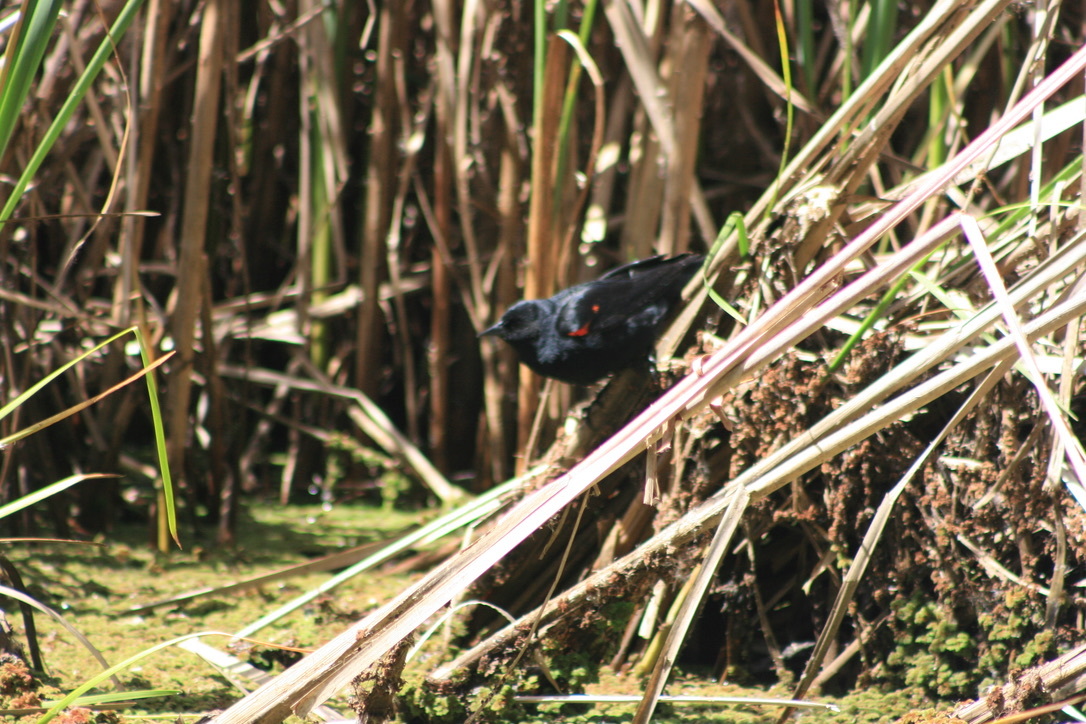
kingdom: Animalia
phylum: Chordata
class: Aves
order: Passeriformes
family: Icteridae
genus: Agelaius
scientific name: Agelaius phoeniceus
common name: Red-winged blackbird
